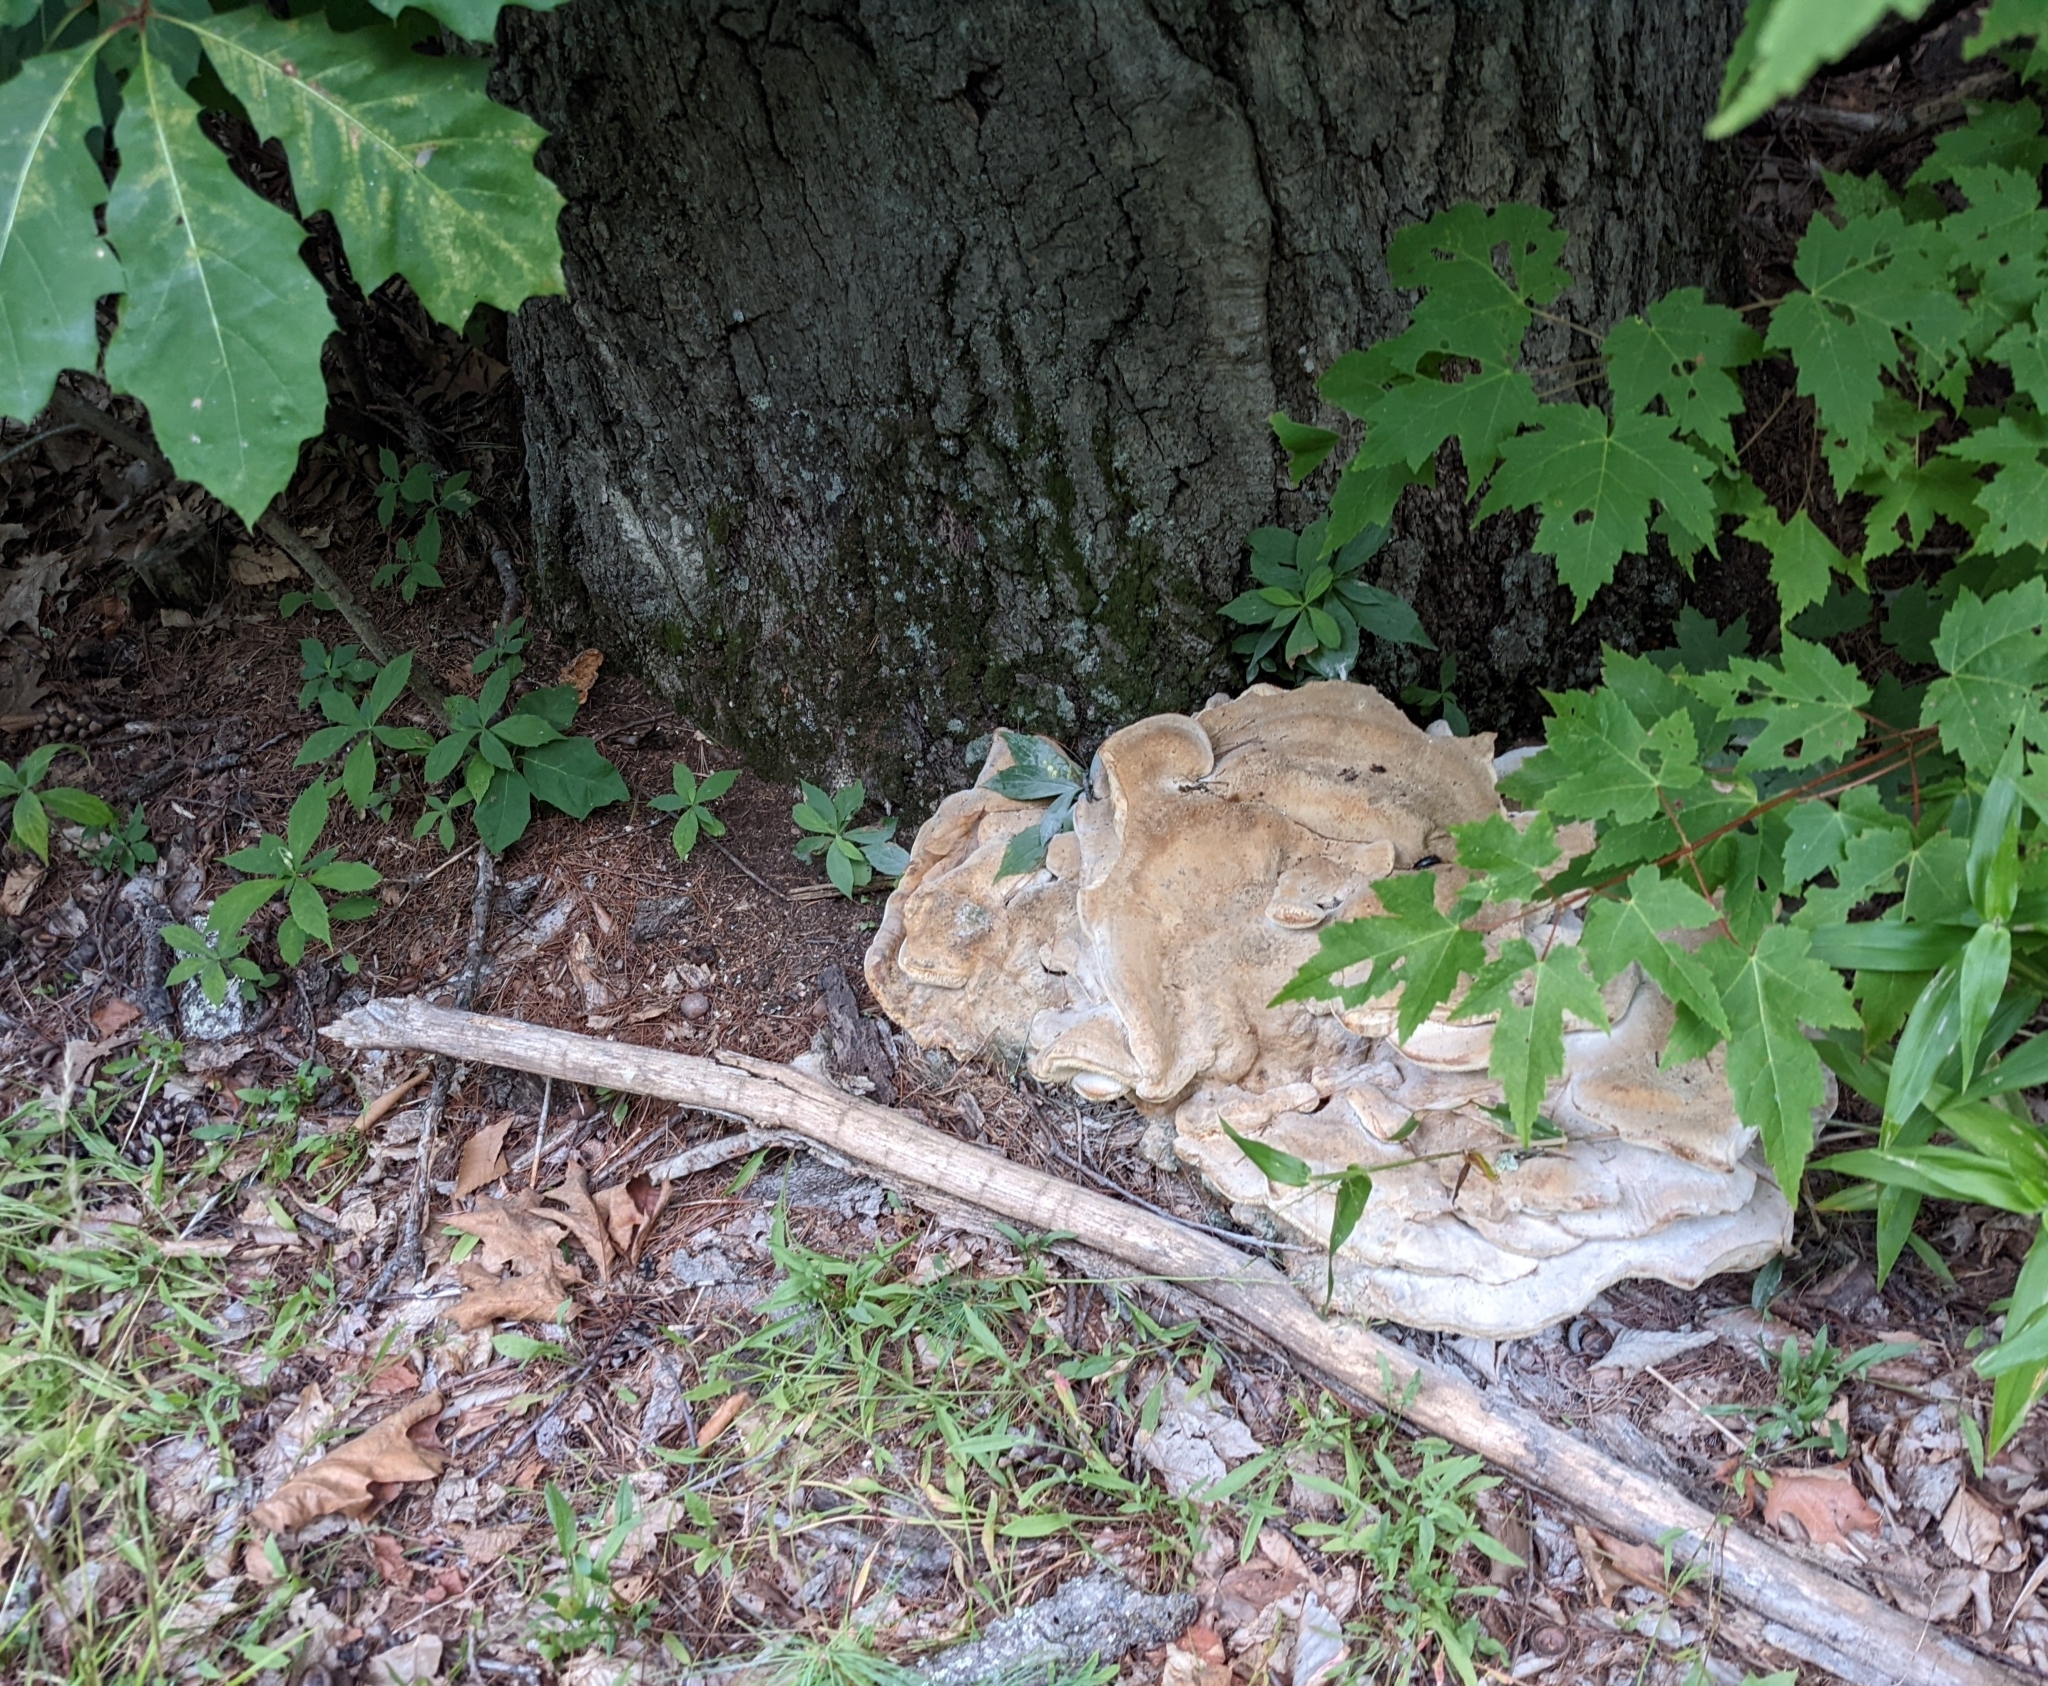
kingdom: Fungi
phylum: Basidiomycota
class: Agaricomycetes
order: Russulales
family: Bondarzewiaceae
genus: Bondarzewia
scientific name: Bondarzewia berkeleyi
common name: Berkeley's polypore
